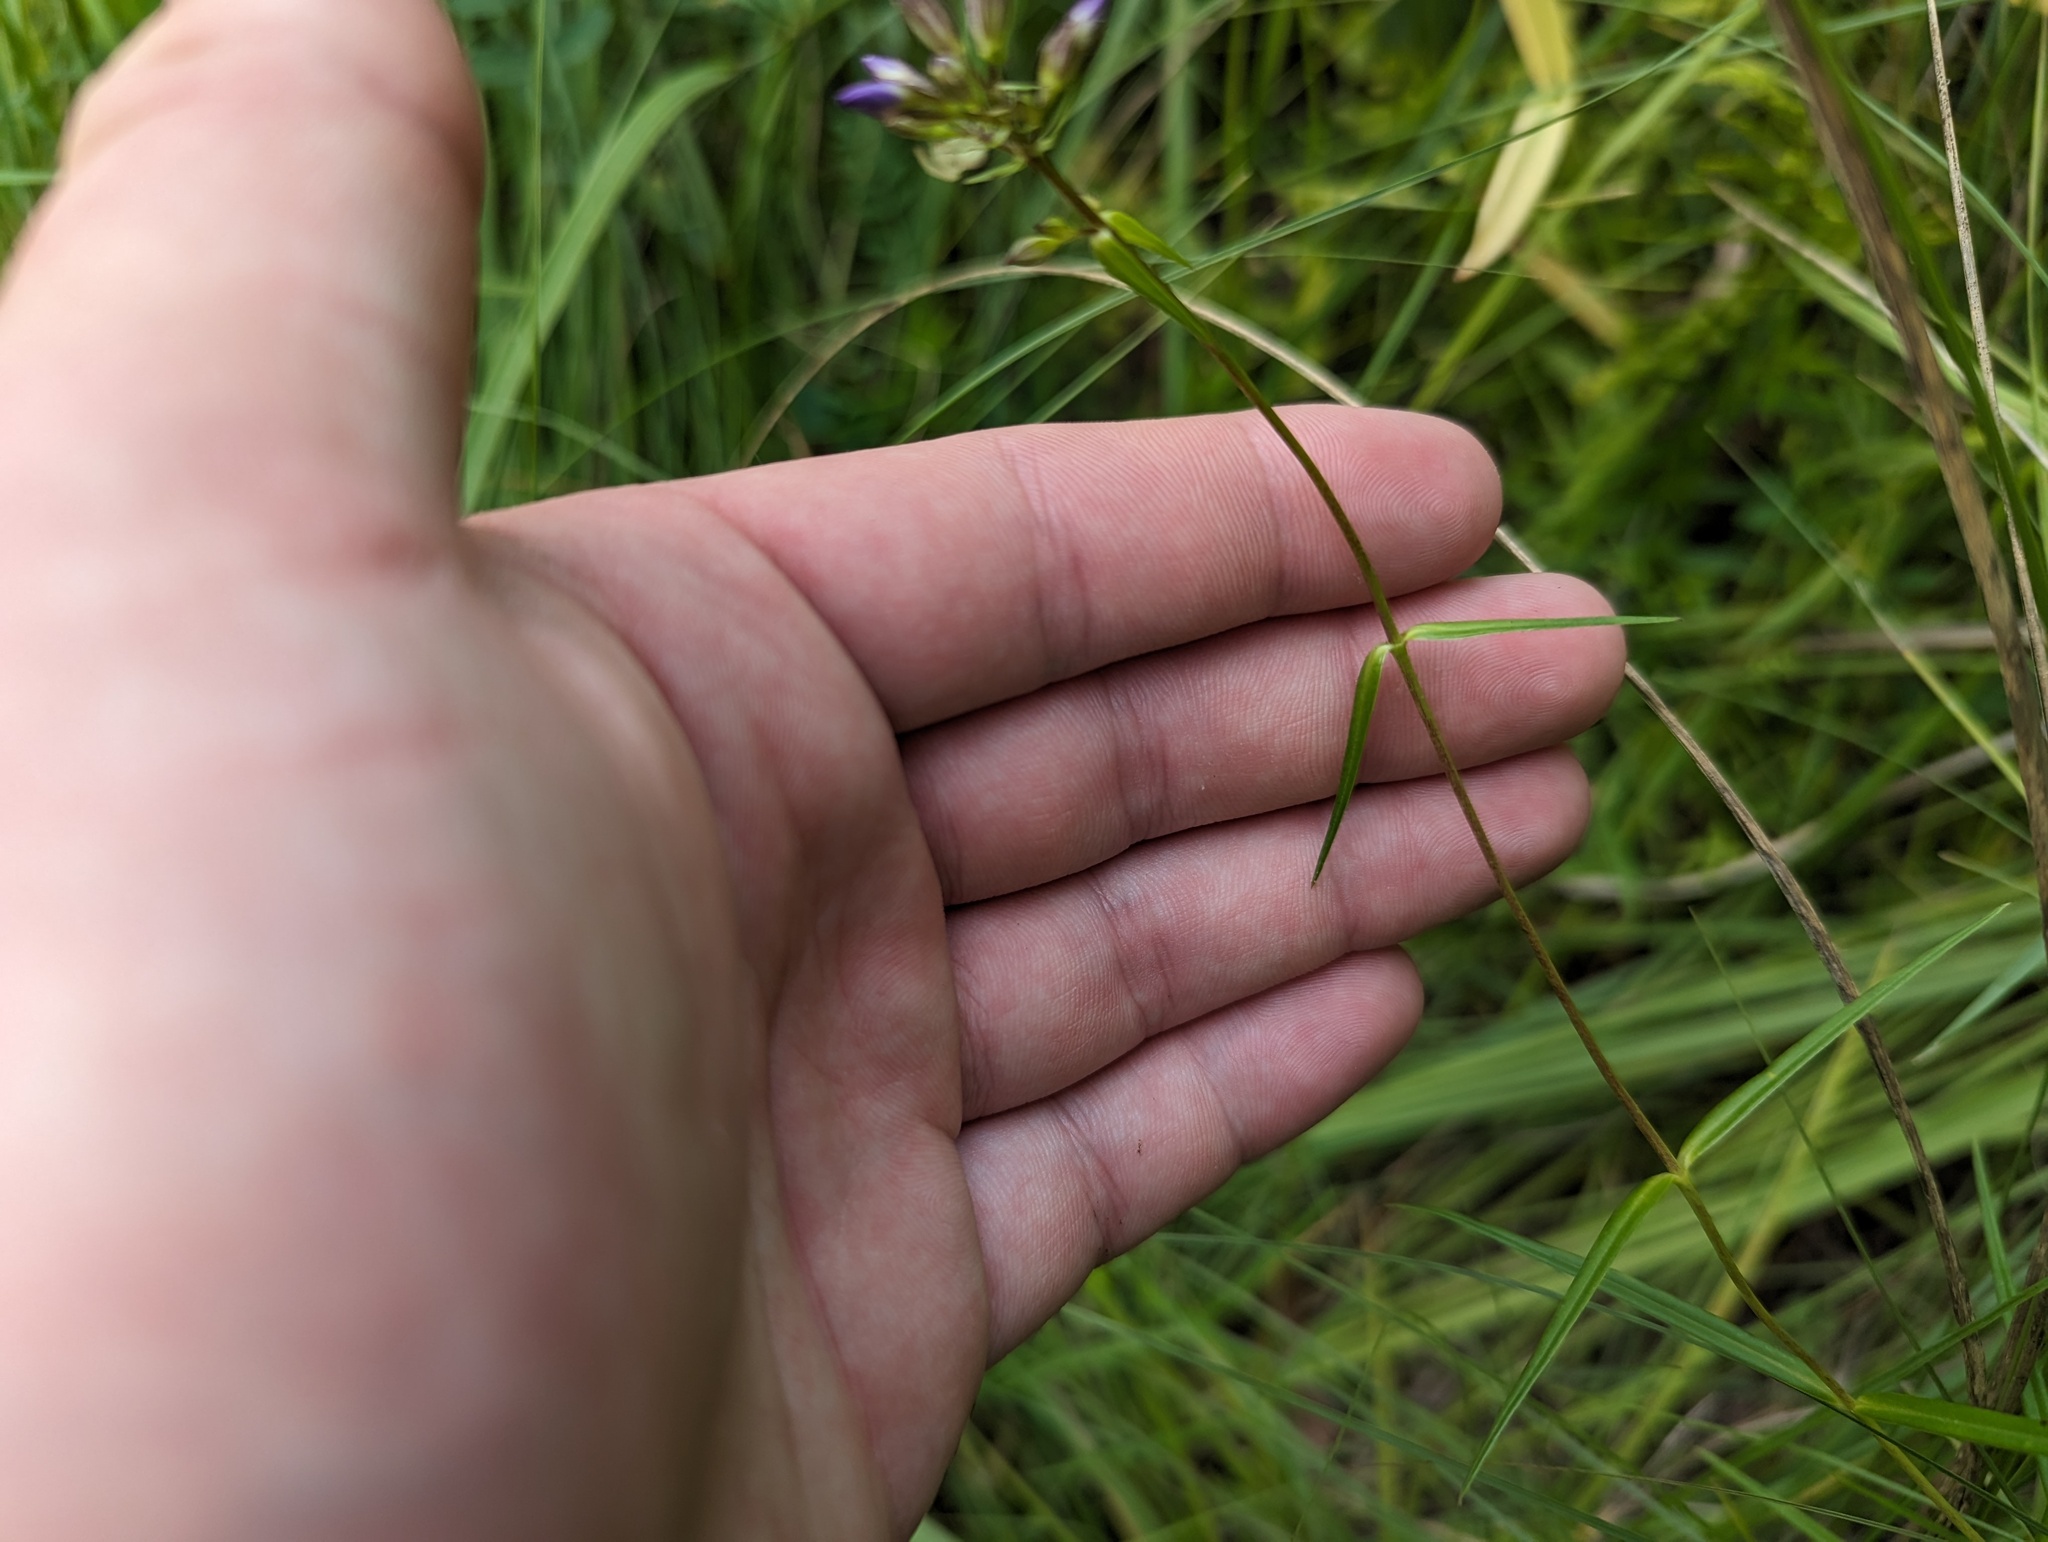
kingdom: Plantae
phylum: Tracheophyta
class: Magnoliopsida
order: Ericales
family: Polemoniaceae
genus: Phlox
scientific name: Phlox glaberrima
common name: Smooth phlox
